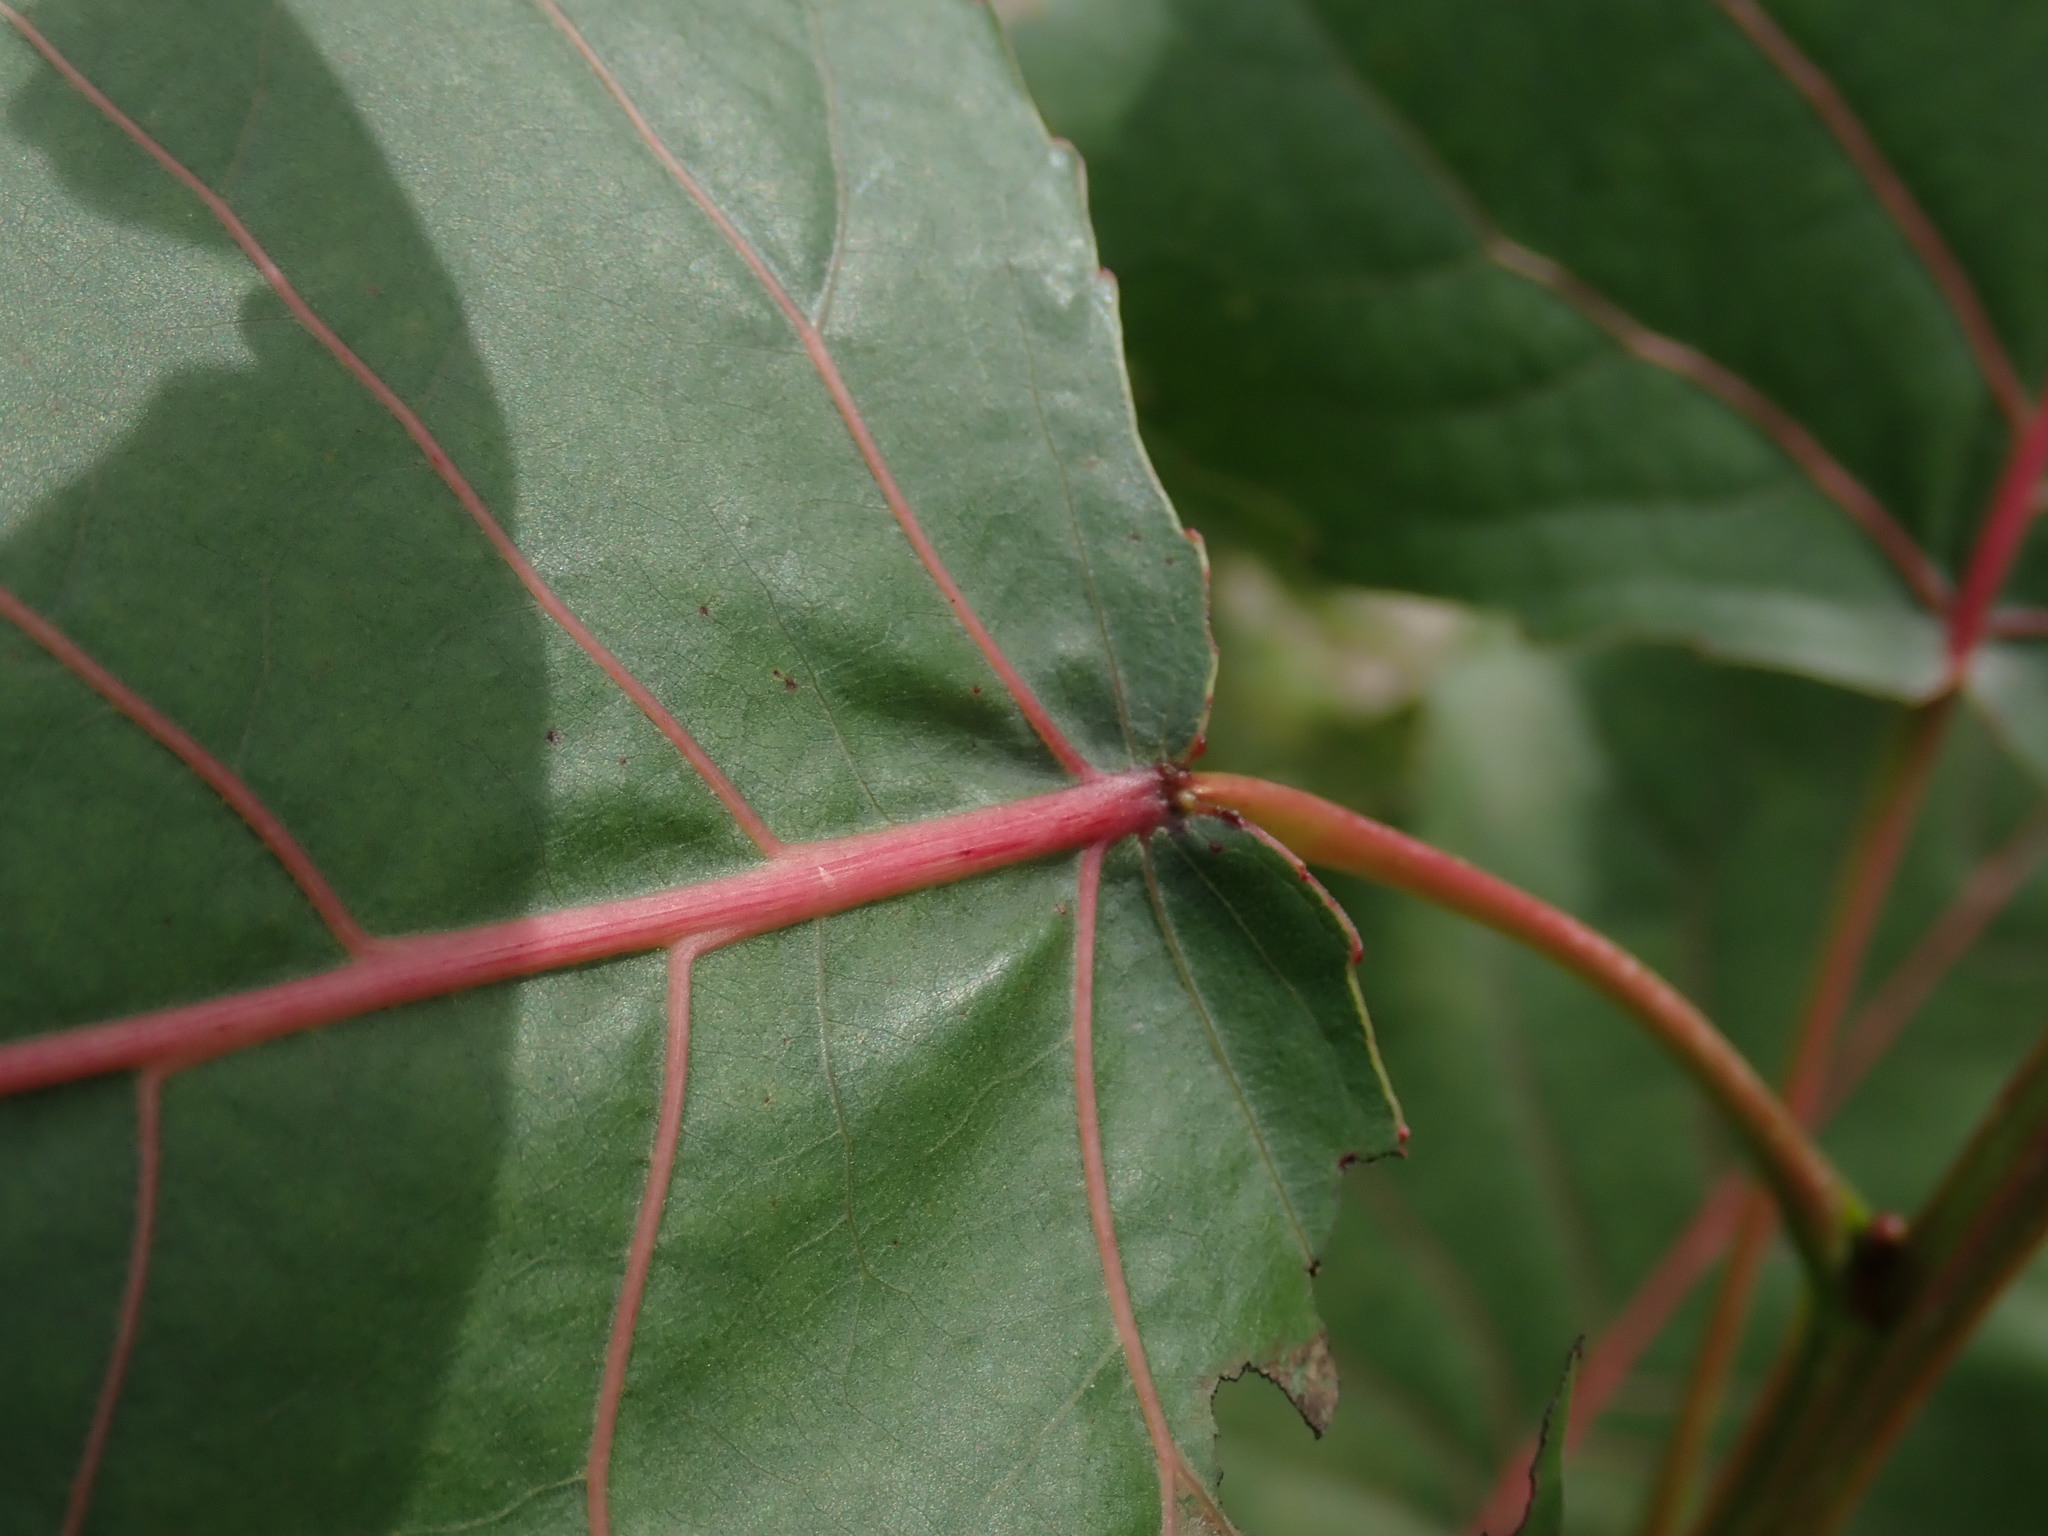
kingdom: Plantae
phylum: Tracheophyta
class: Magnoliopsida
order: Malpighiales
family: Salicaceae
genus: Populus
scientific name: Populus deltoides
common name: Eastern cottonwood
